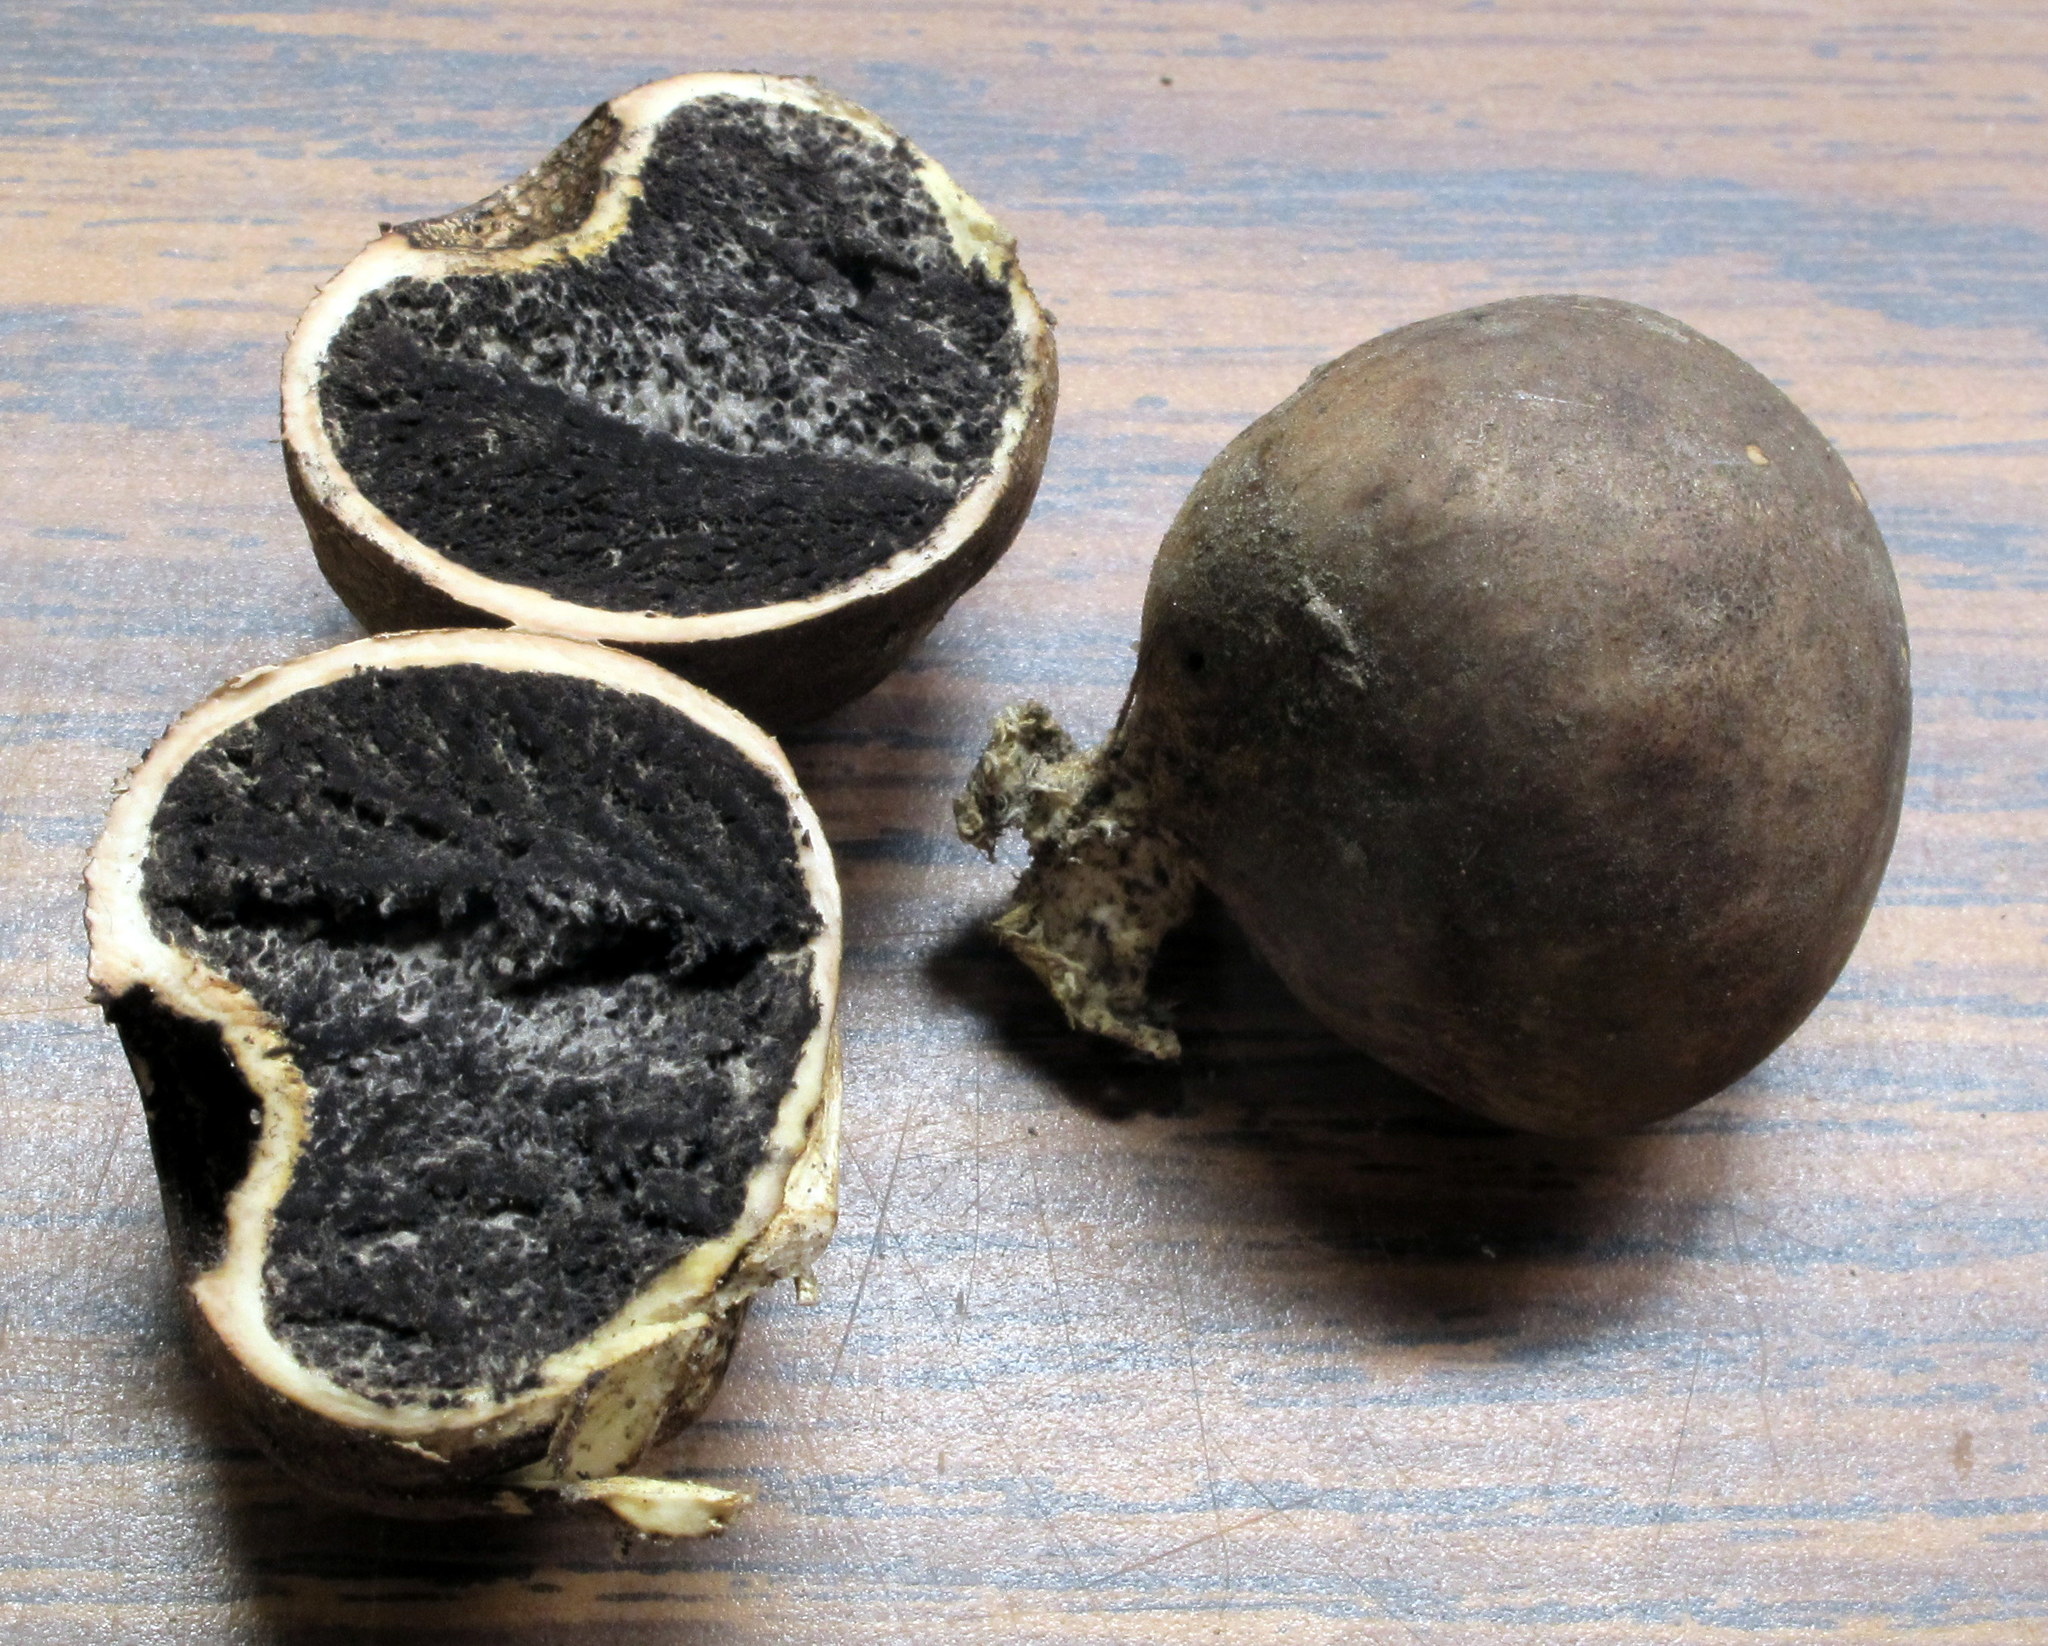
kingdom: Fungi
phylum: Basidiomycota
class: Agaricomycetes
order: Boletales
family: Sclerodermataceae
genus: Scleroderma
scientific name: Scleroderma michiganense
